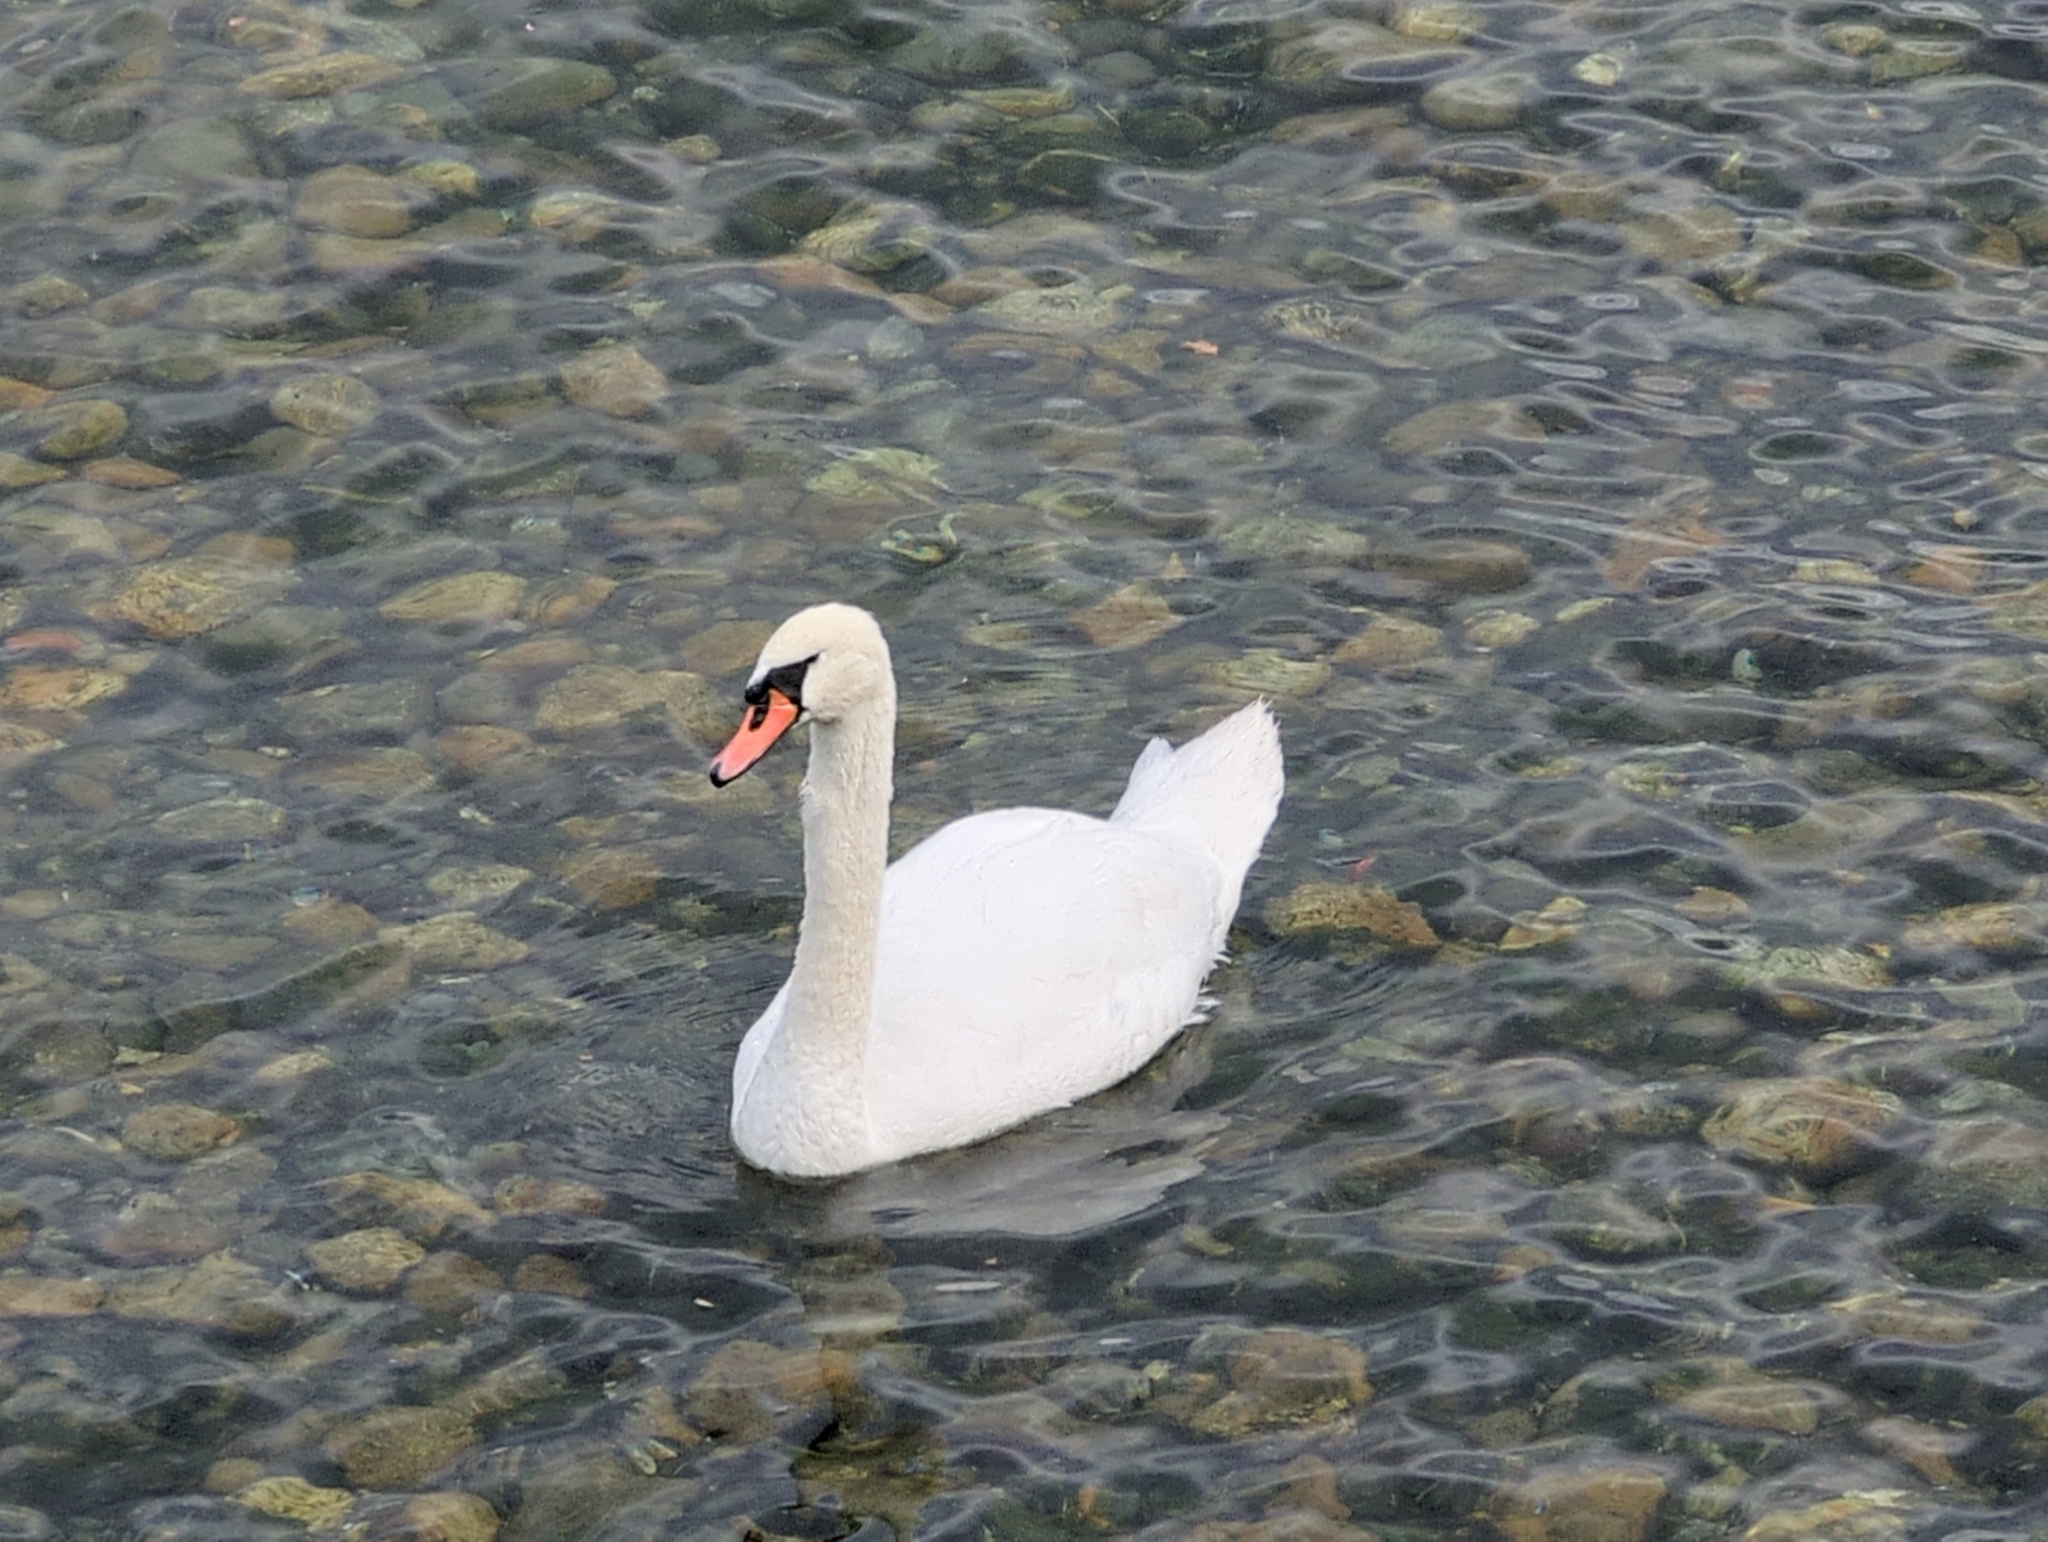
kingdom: Animalia
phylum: Chordata
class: Aves
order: Anseriformes
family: Anatidae
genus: Cygnus
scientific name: Cygnus olor
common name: Mute swan
